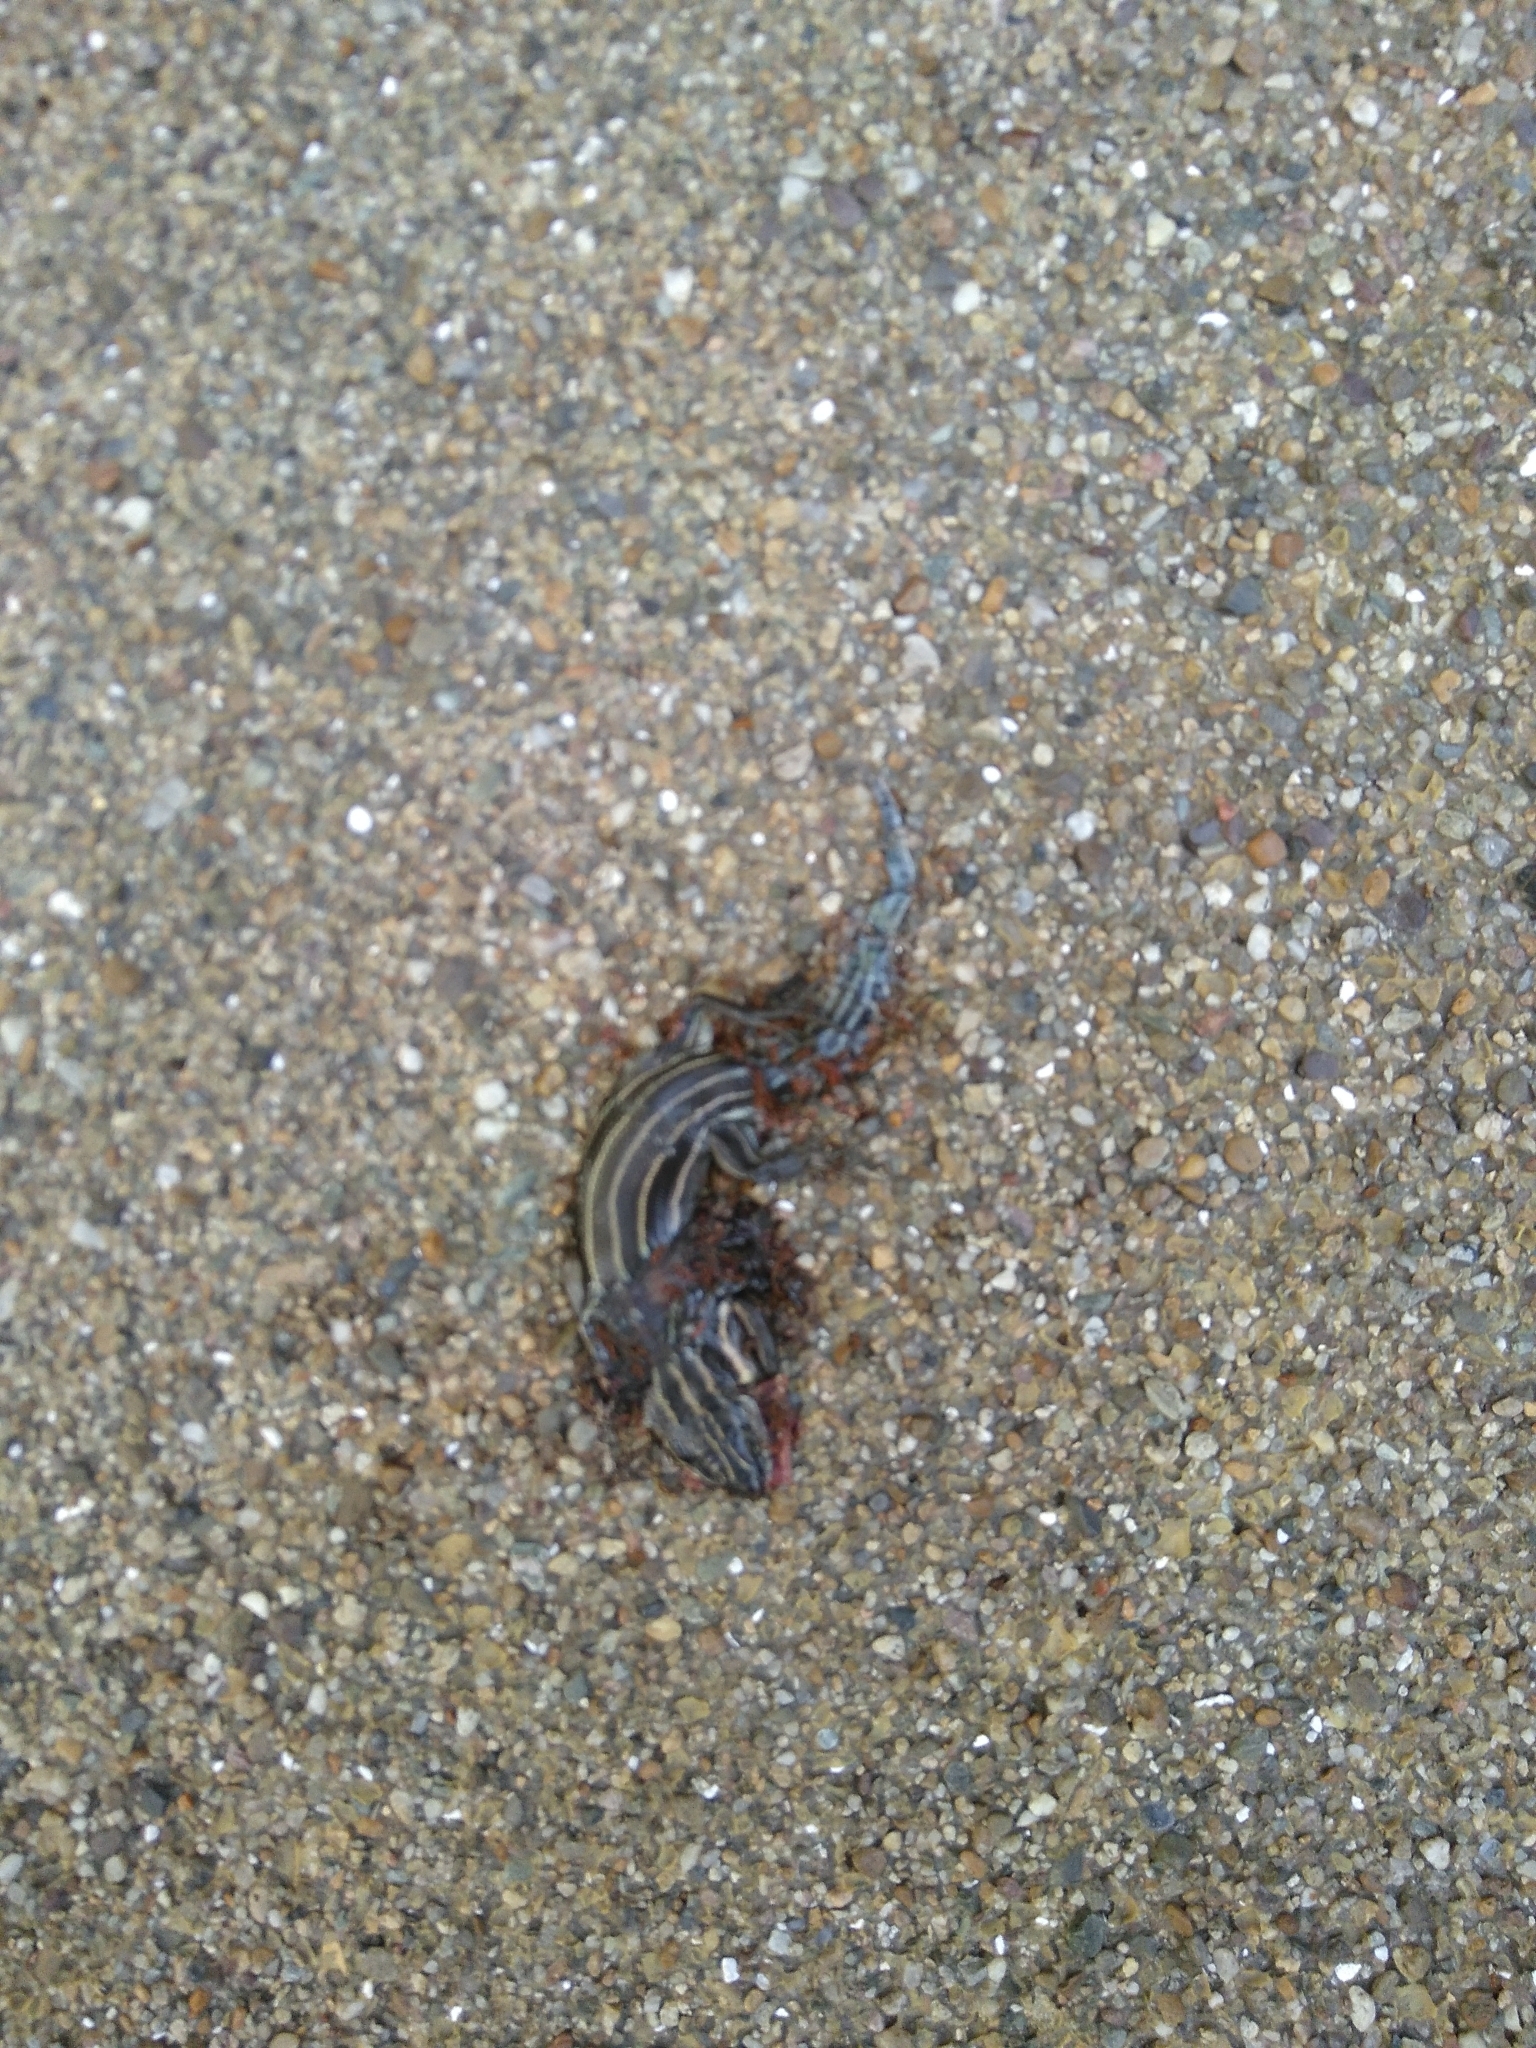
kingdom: Animalia
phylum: Chordata
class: Squamata
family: Scincidae
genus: Plestiodon
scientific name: Plestiodon fasciatus
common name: Five-lined skink
